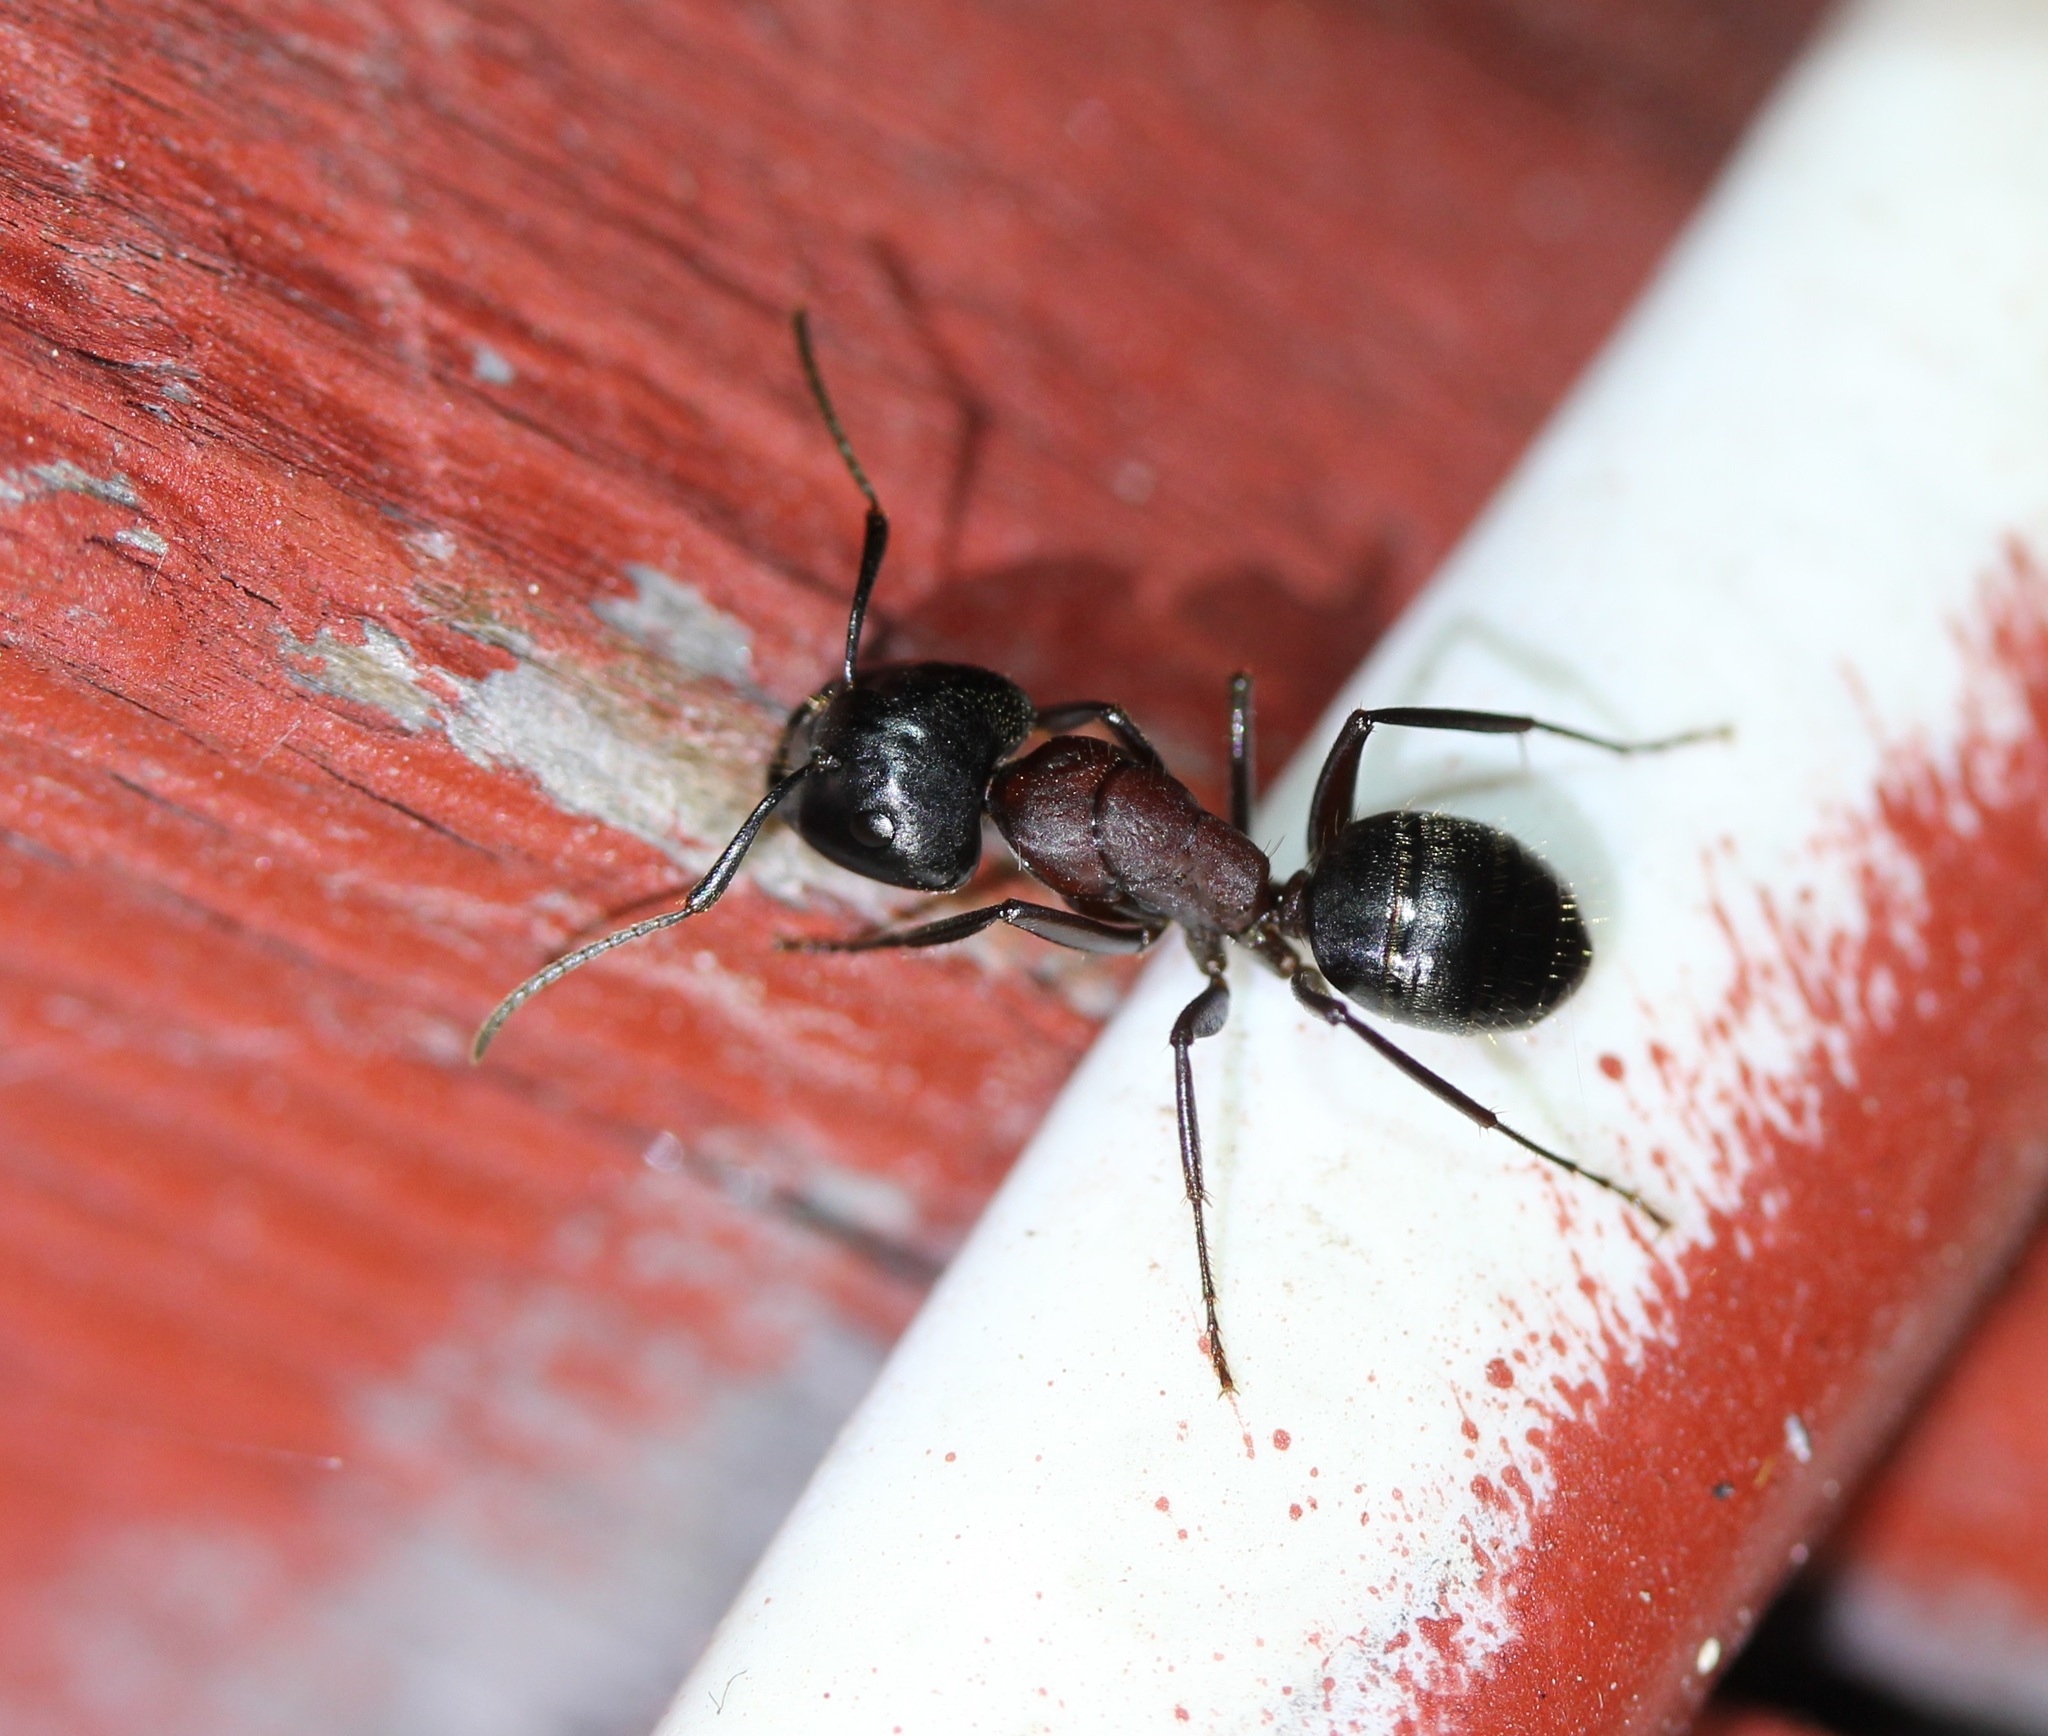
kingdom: Animalia
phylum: Arthropoda
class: Insecta
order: Hymenoptera
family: Formicidae
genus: Camponotus
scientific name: Camponotus novaeboracensis
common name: New york carpenter ant
